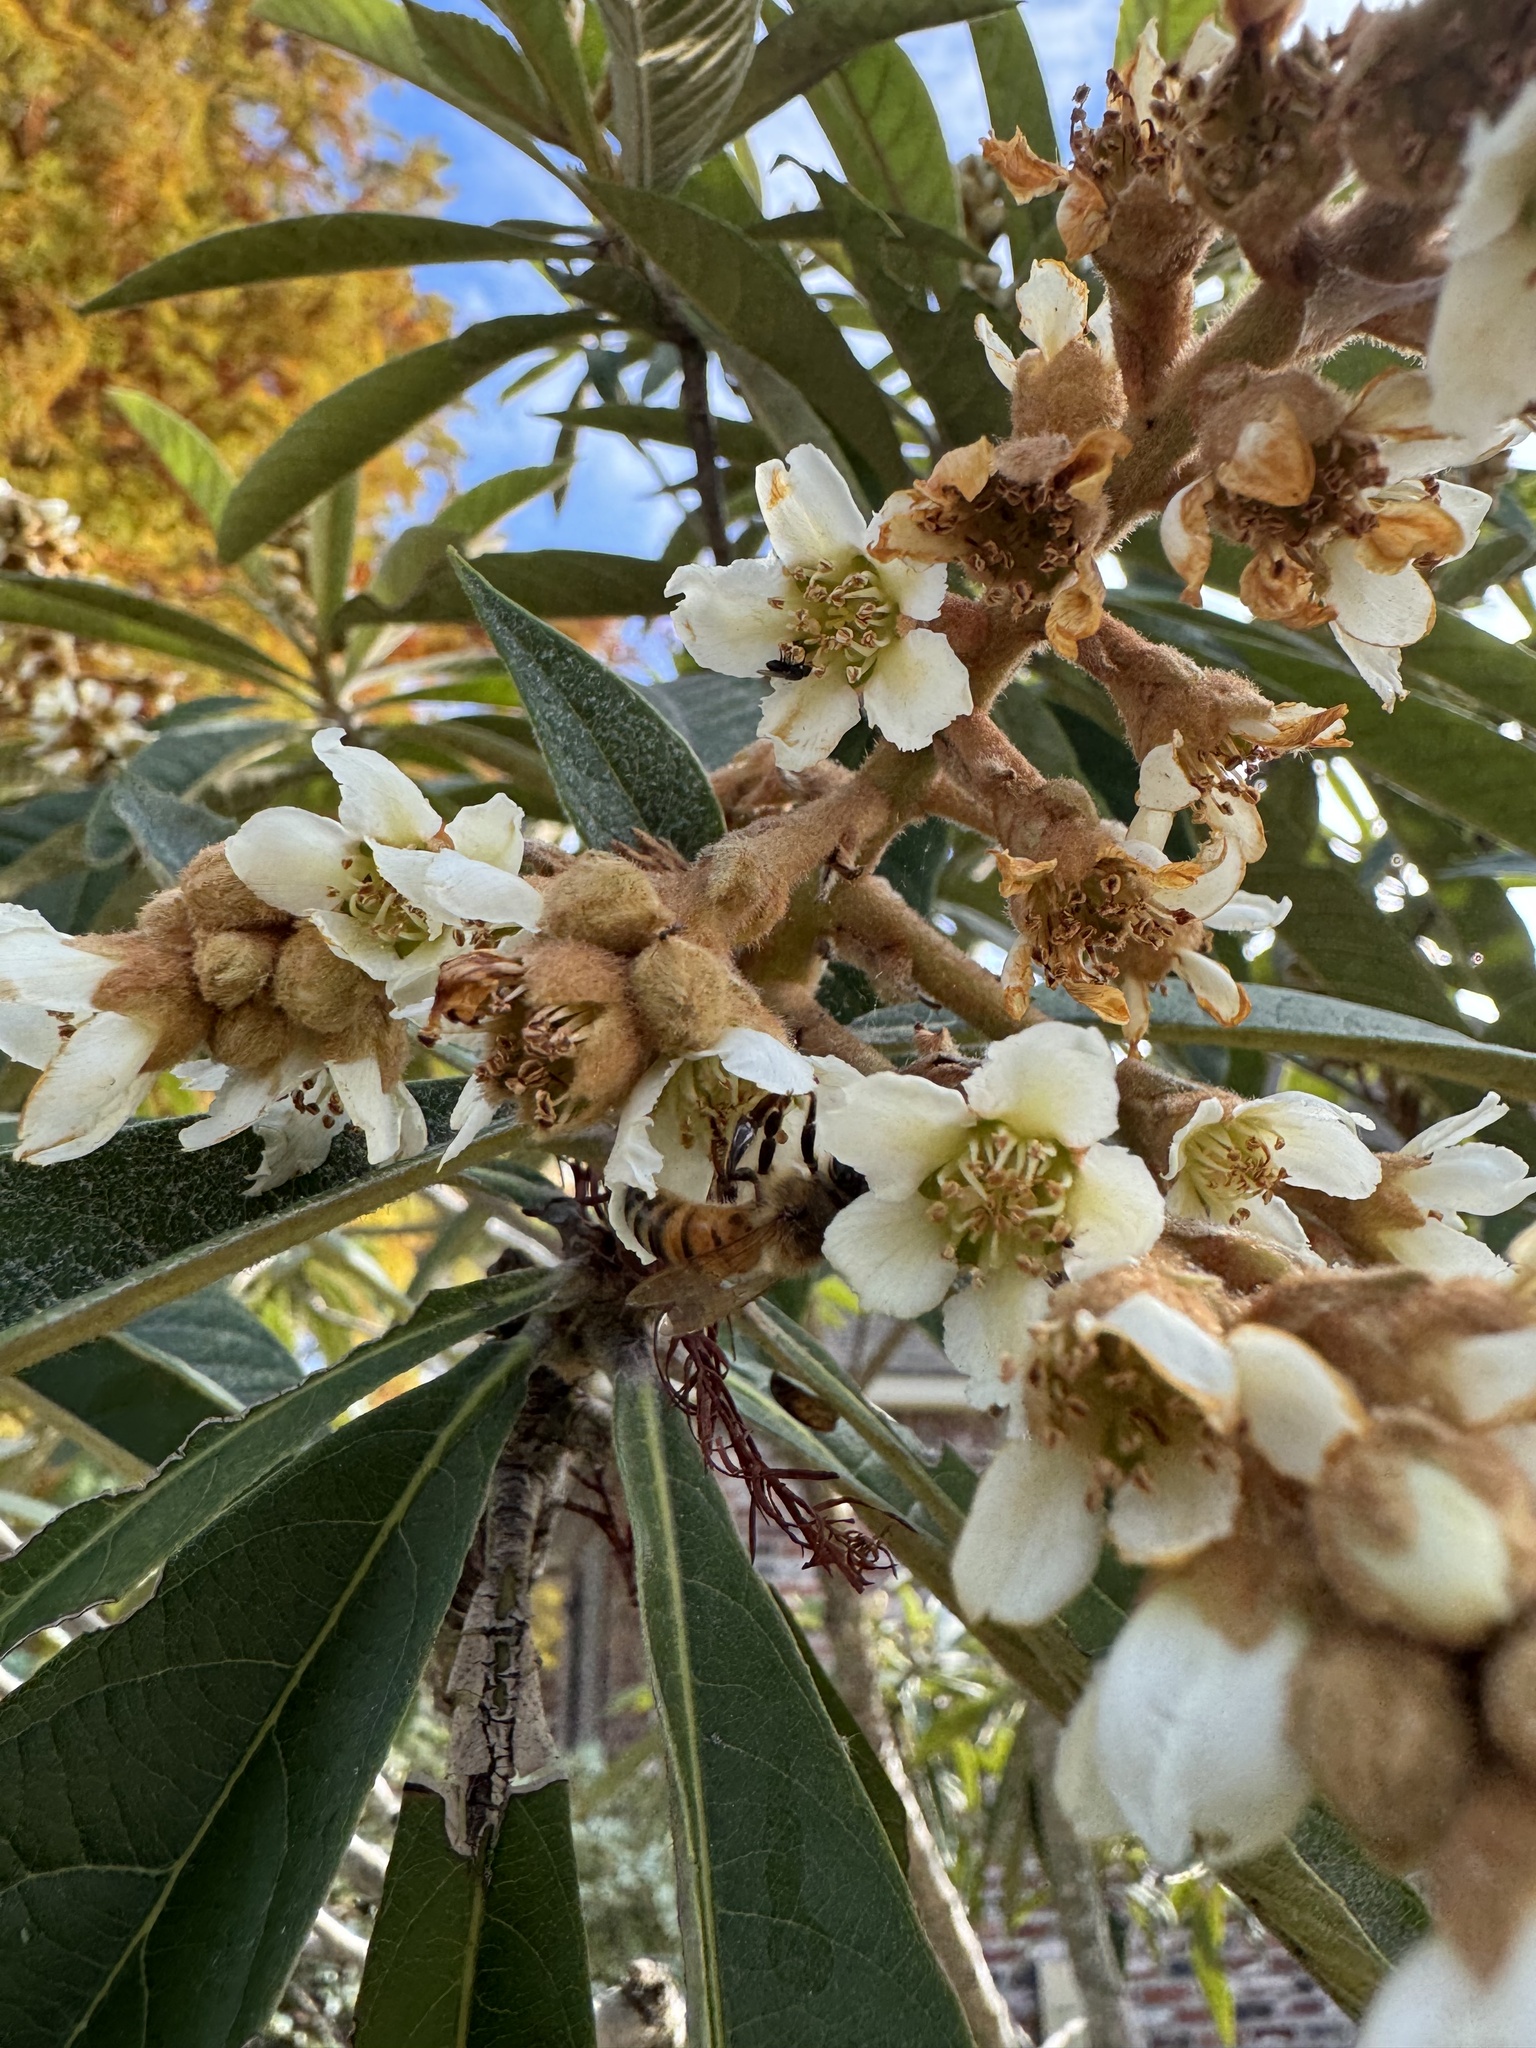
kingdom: Animalia
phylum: Arthropoda
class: Insecta
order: Hymenoptera
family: Apidae
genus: Apis
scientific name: Apis mellifera
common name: Honey bee
